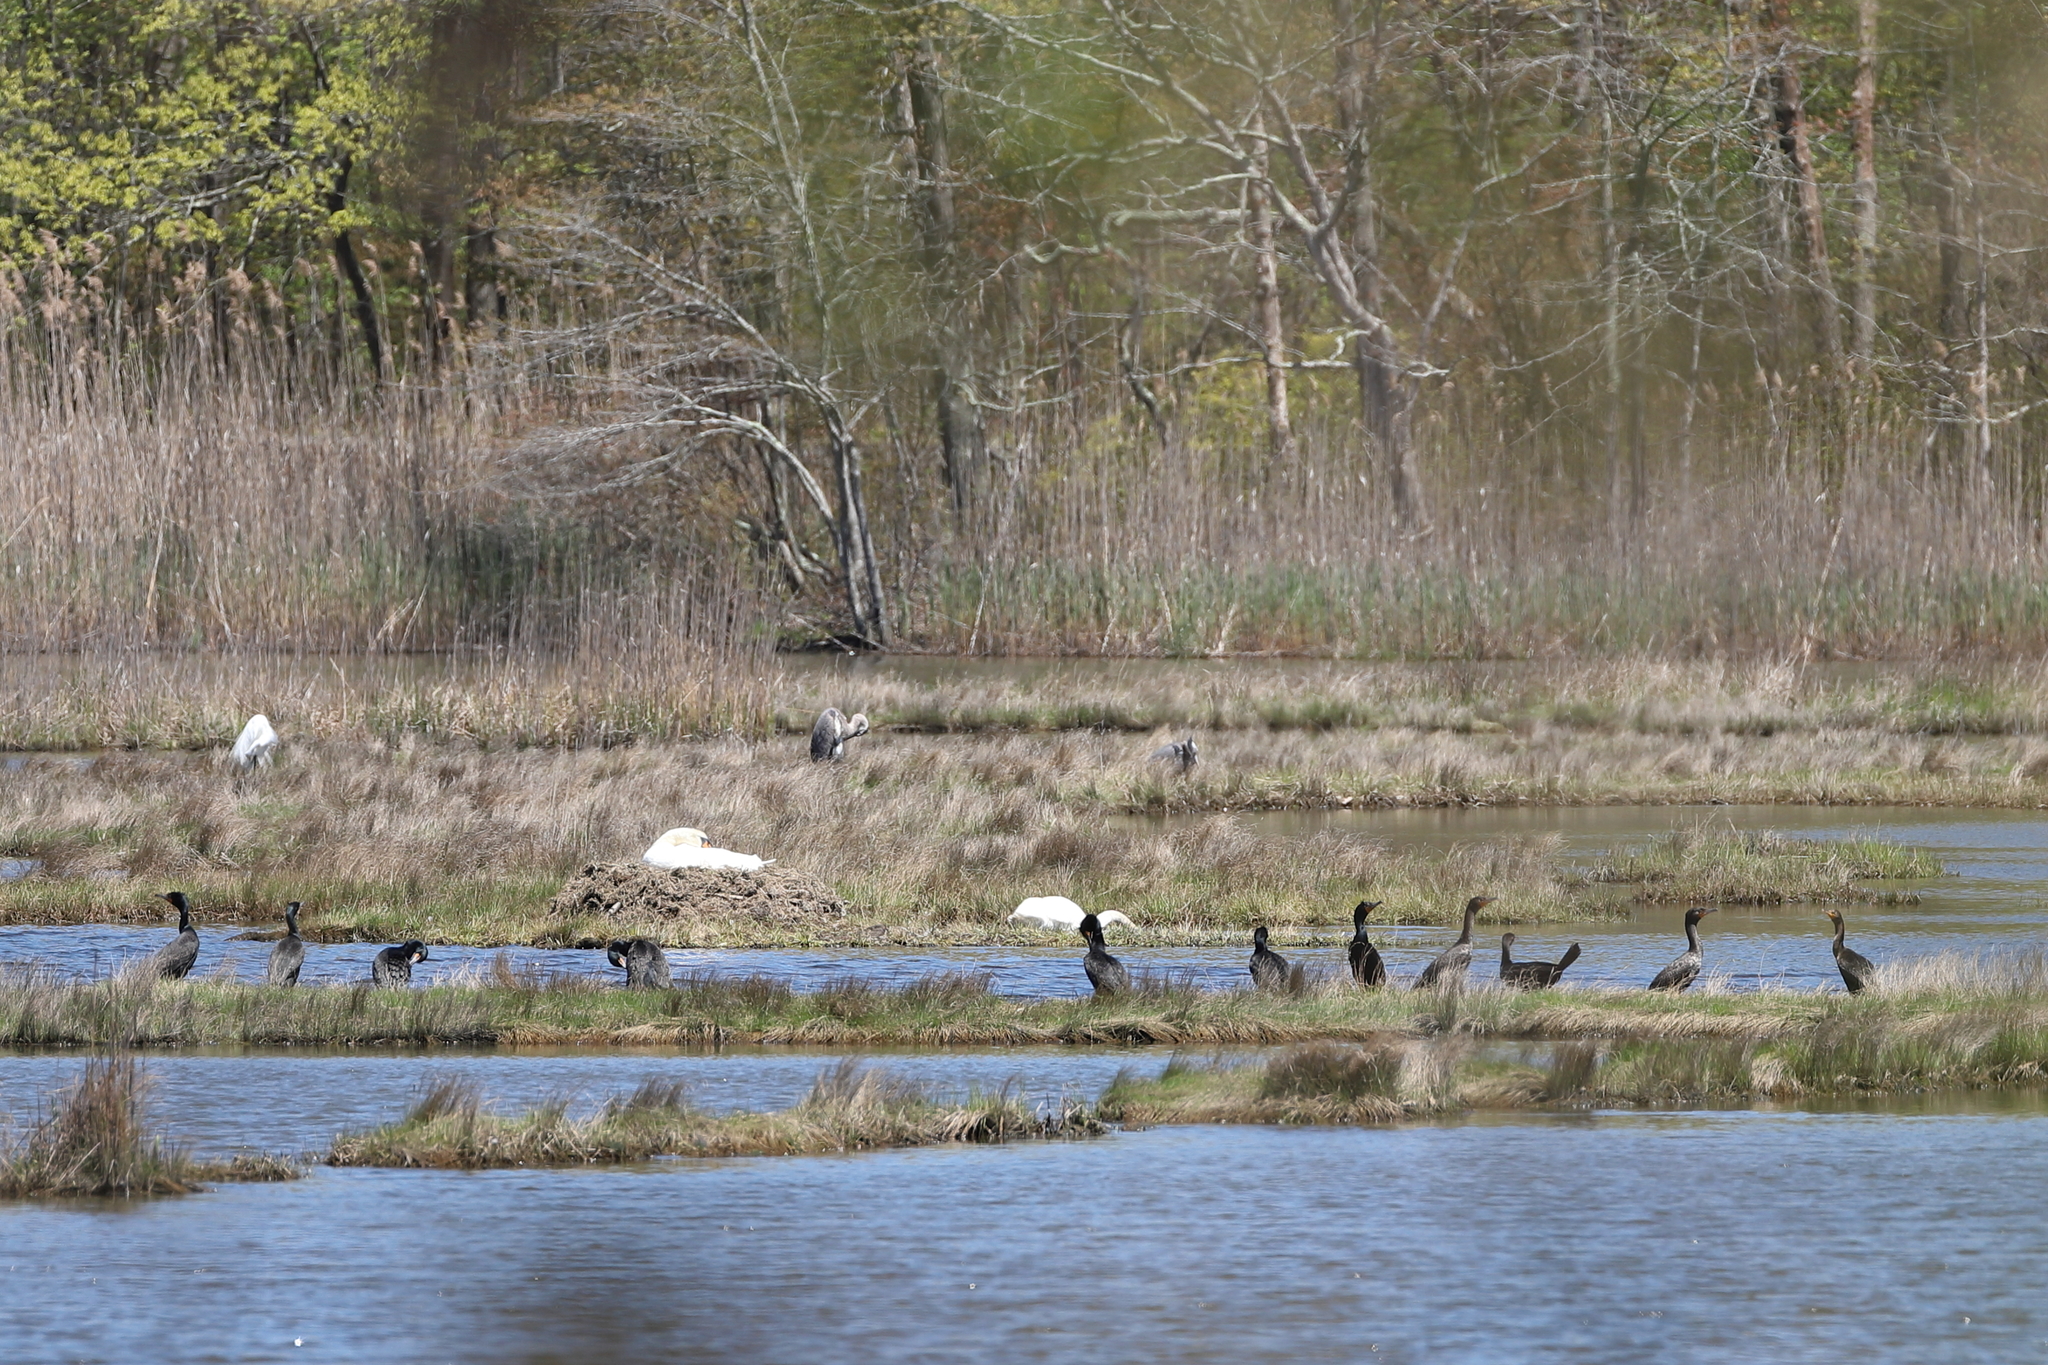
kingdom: Animalia
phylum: Chordata
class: Aves
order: Suliformes
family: Phalacrocoracidae
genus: Phalacrocorax
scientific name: Phalacrocorax auritus
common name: Double-crested cormorant
